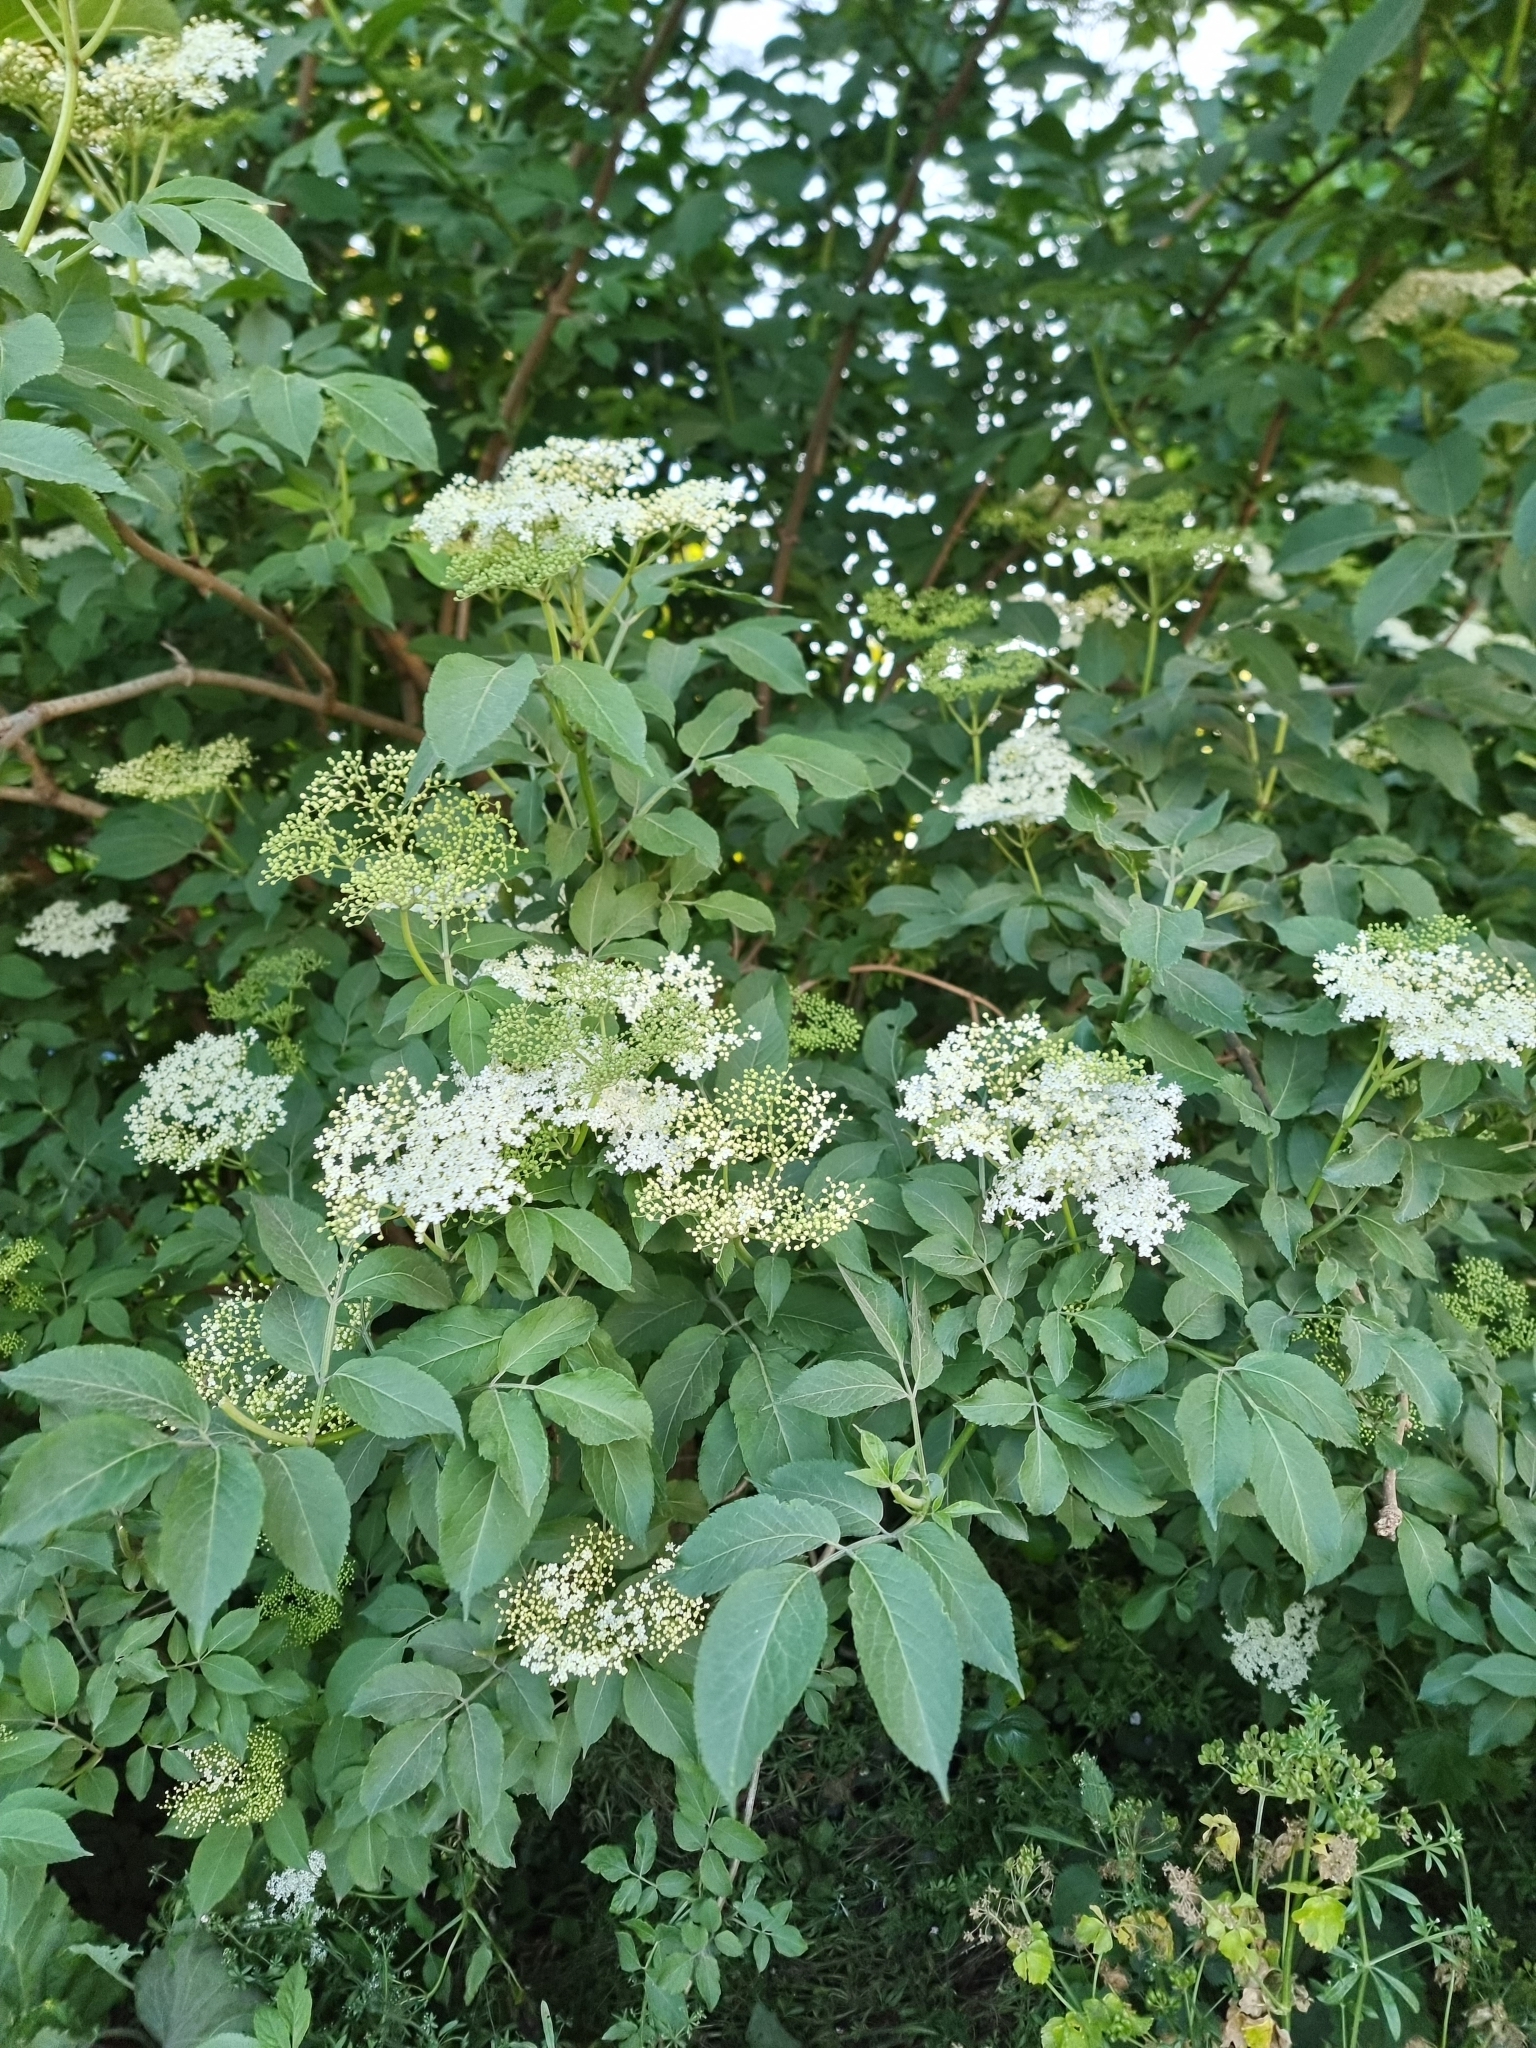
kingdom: Plantae
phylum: Tracheophyta
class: Magnoliopsida
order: Dipsacales
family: Viburnaceae
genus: Sambucus
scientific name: Sambucus nigra
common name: Elder
